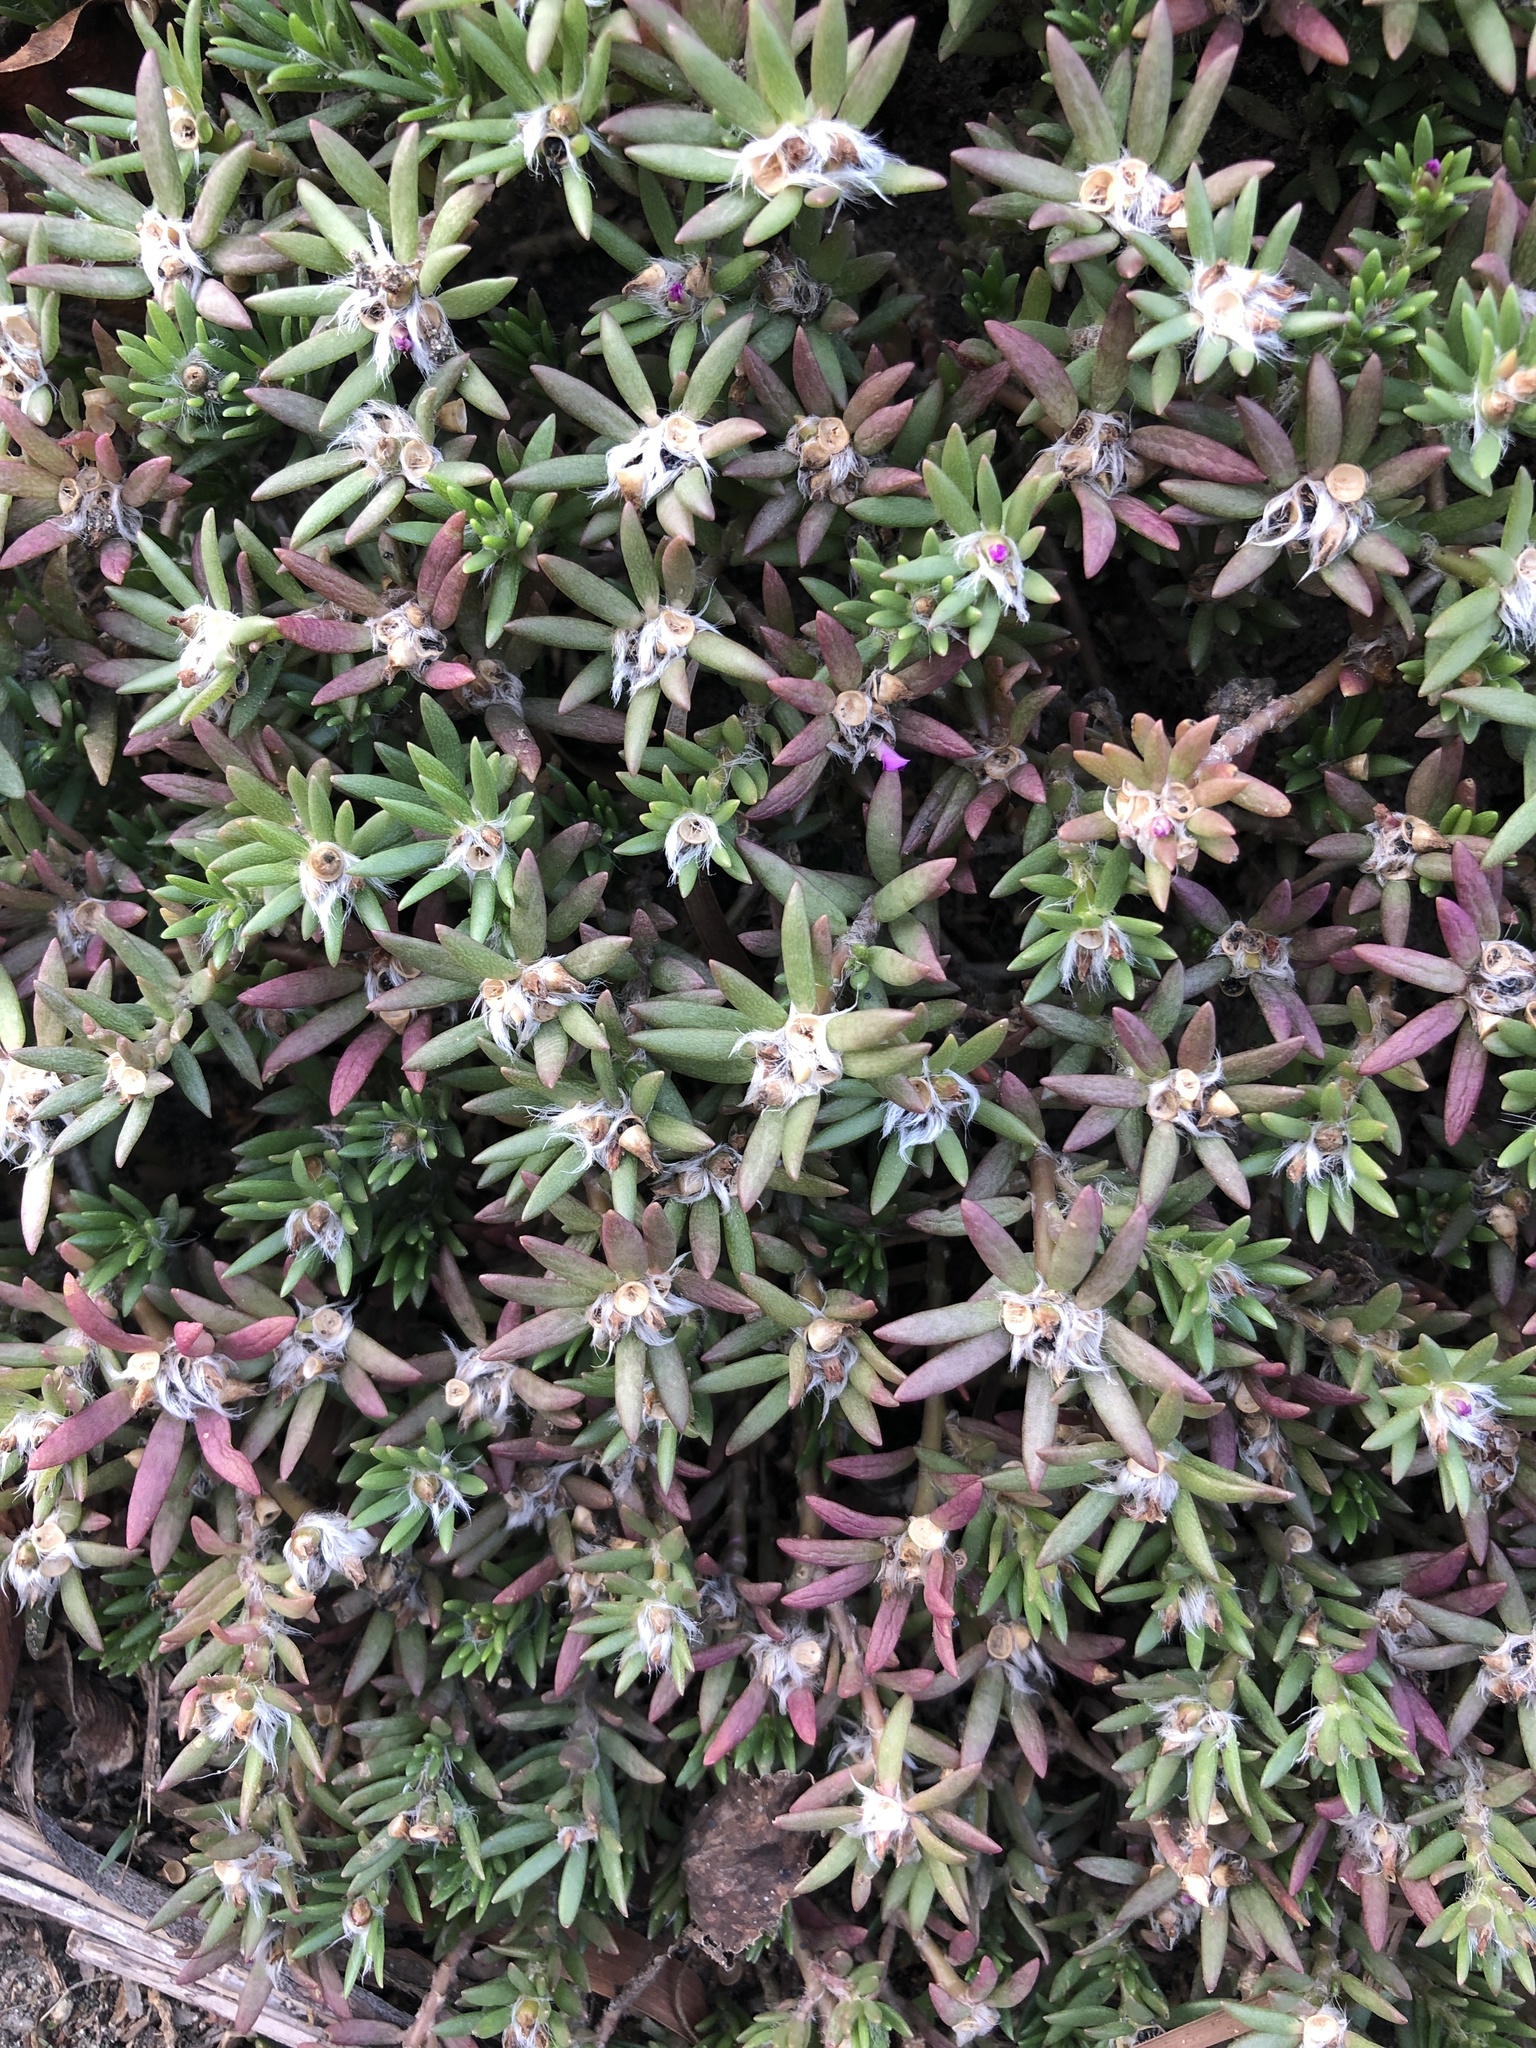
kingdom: Plantae
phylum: Tracheophyta
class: Magnoliopsida
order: Caryophyllales
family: Portulacaceae
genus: Portulaca
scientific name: Portulaca pilosa
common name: Kiss me quick
